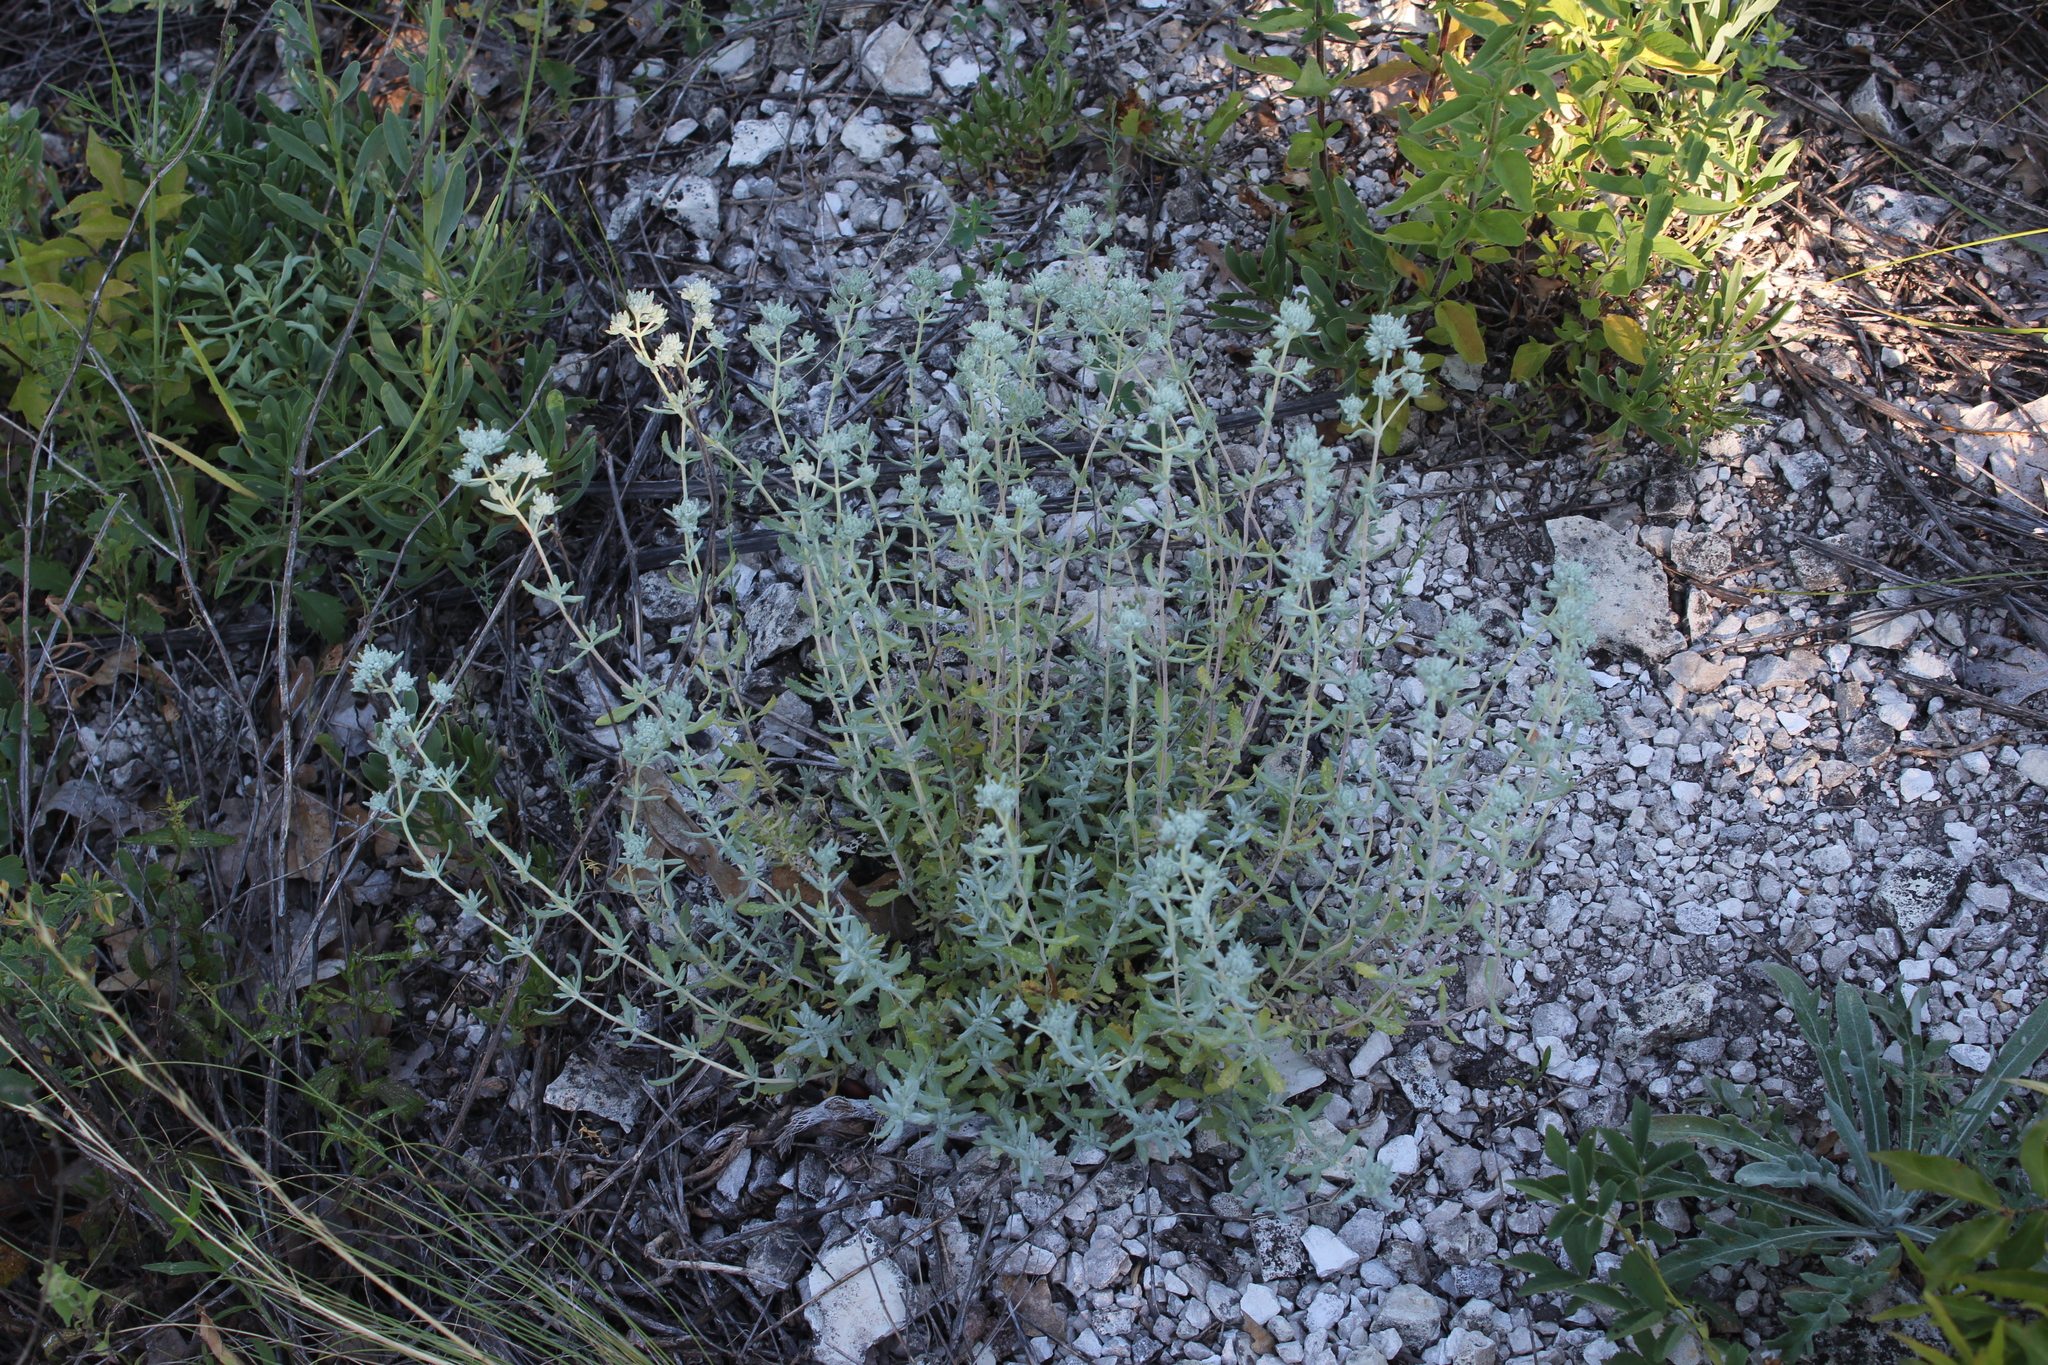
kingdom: Plantae
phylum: Tracheophyta
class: Magnoliopsida
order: Lamiales
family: Lamiaceae
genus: Teucrium
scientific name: Teucrium polium
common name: Poley
